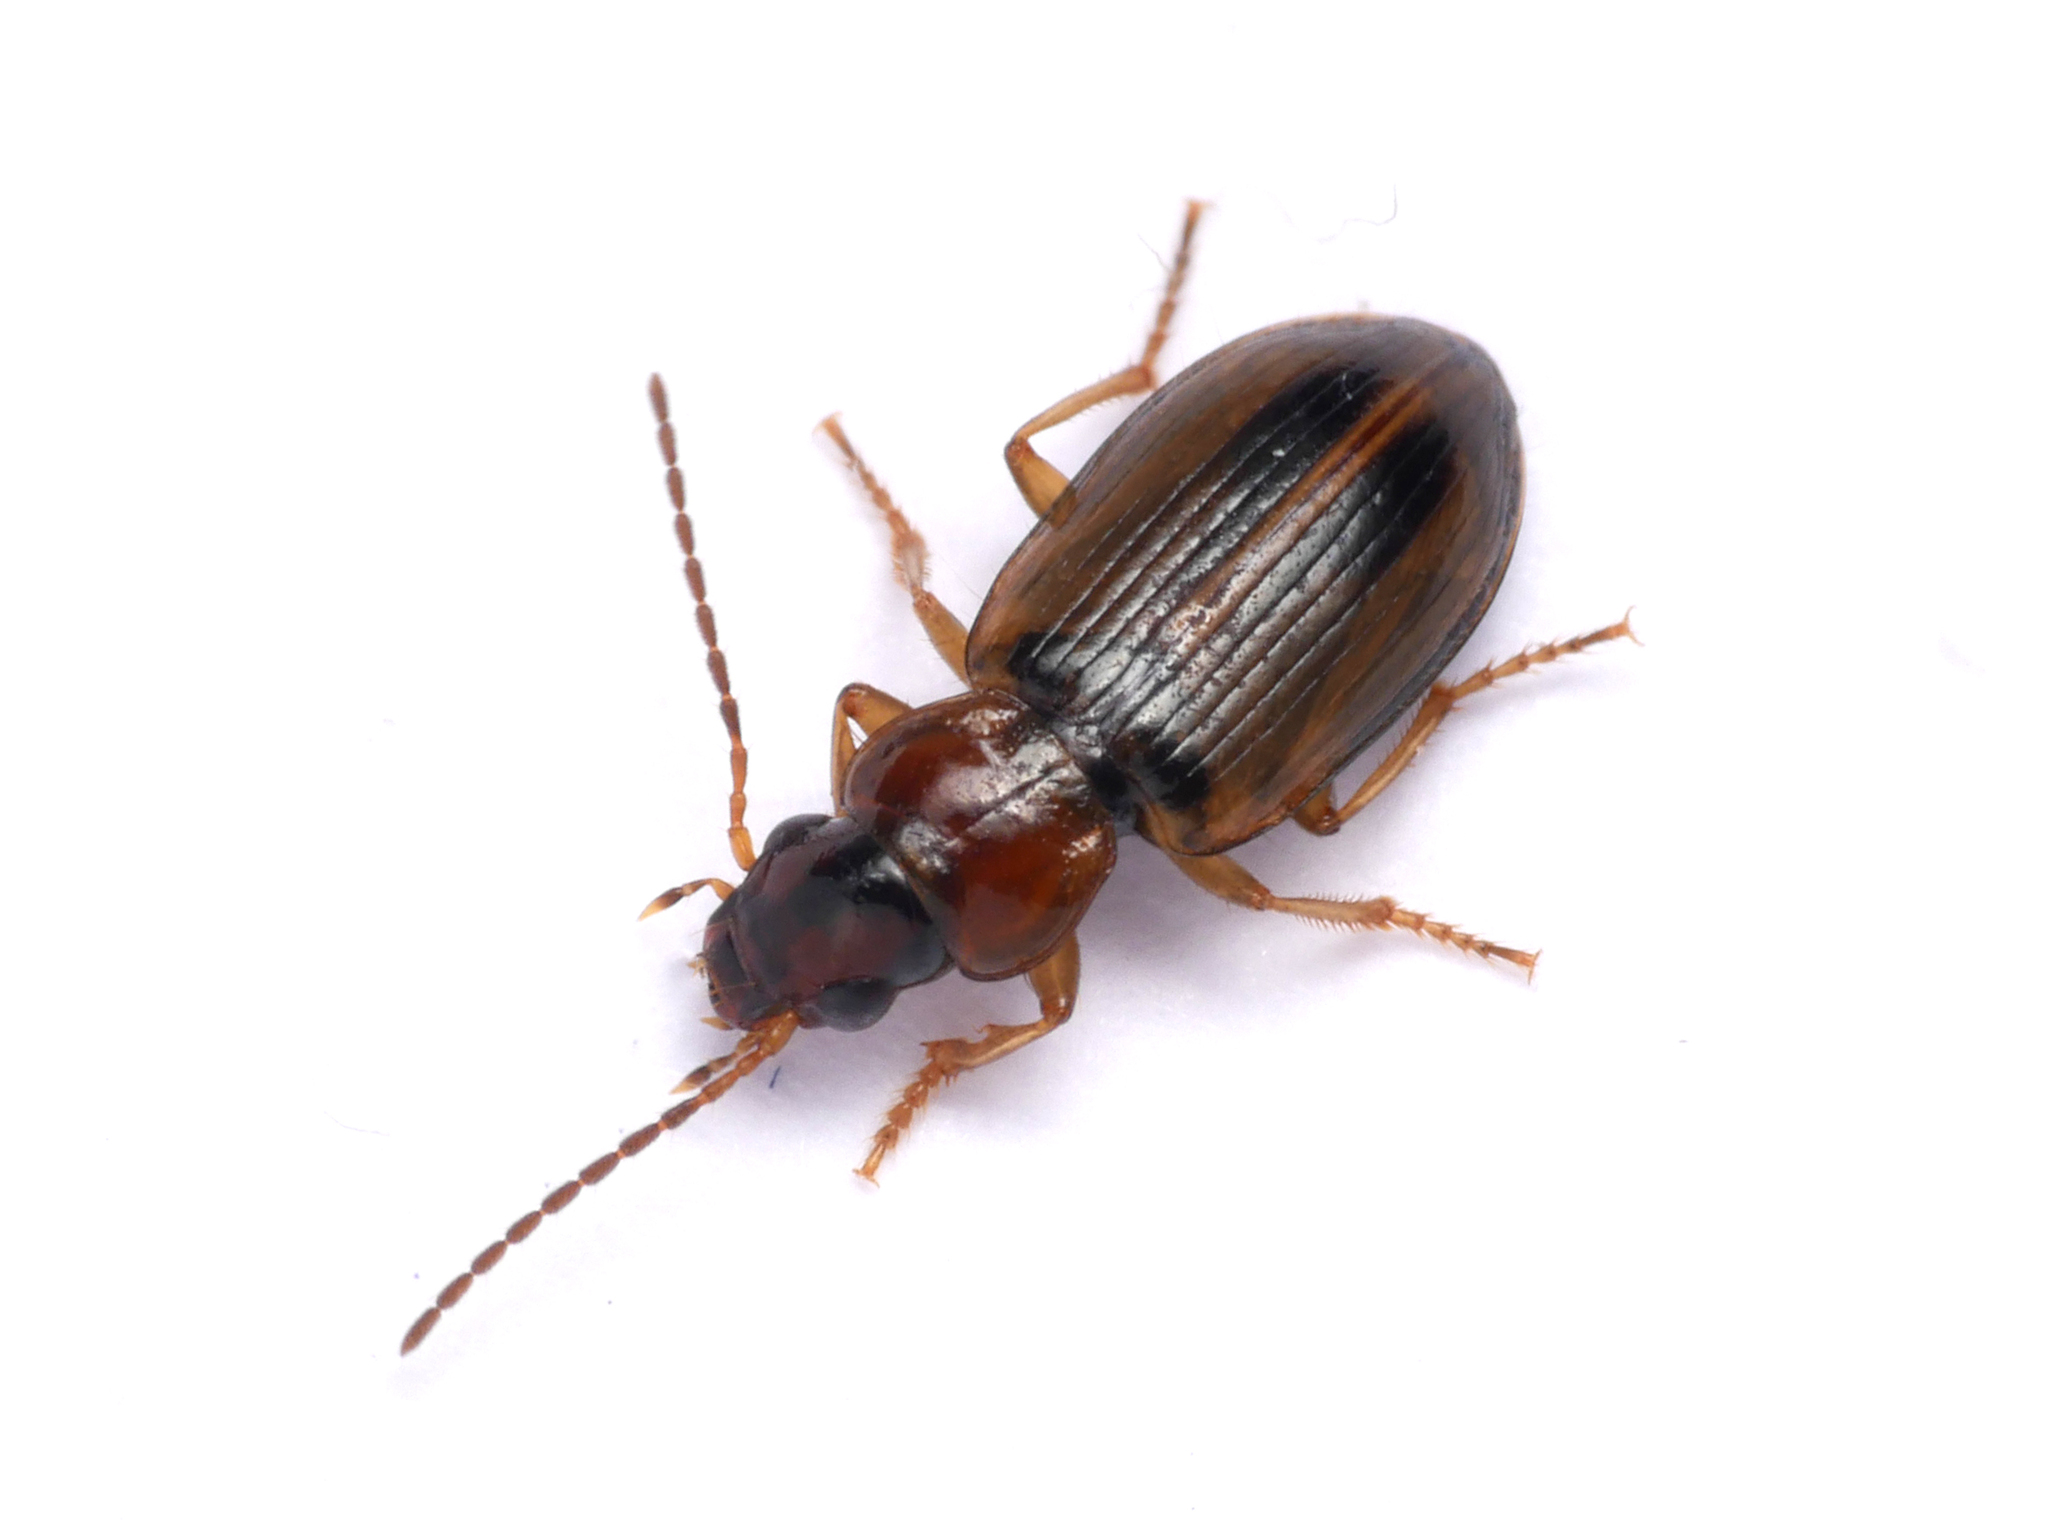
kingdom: Animalia
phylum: Arthropoda
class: Insecta
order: Coleoptera
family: Carabidae
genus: Dicheirotrichus
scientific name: Dicheirotrichus placidus
